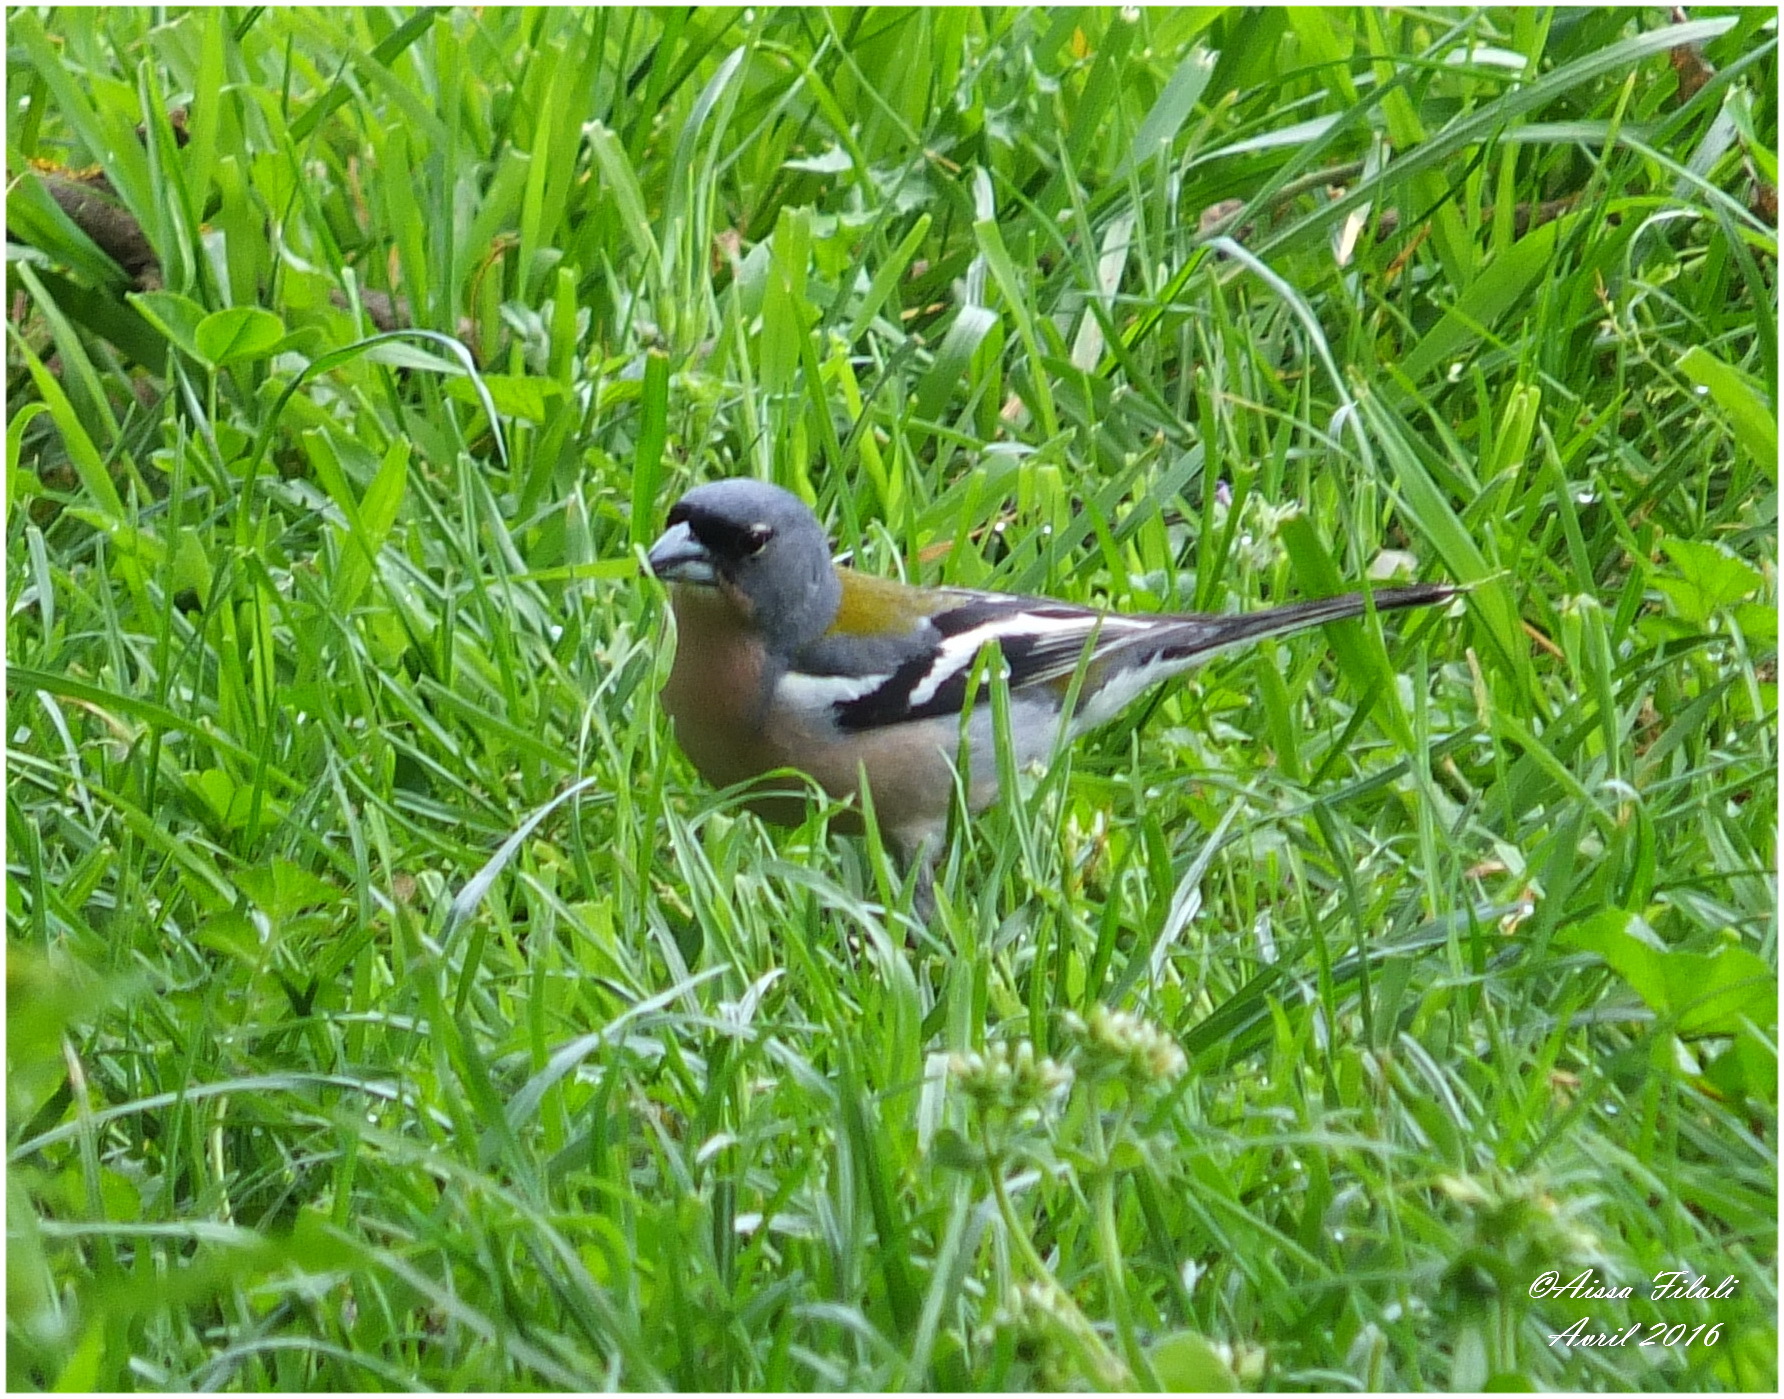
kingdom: Animalia
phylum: Chordata
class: Aves
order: Passeriformes
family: Fringillidae
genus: Fringilla
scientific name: Fringilla spodiogenys
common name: African chaffinch
